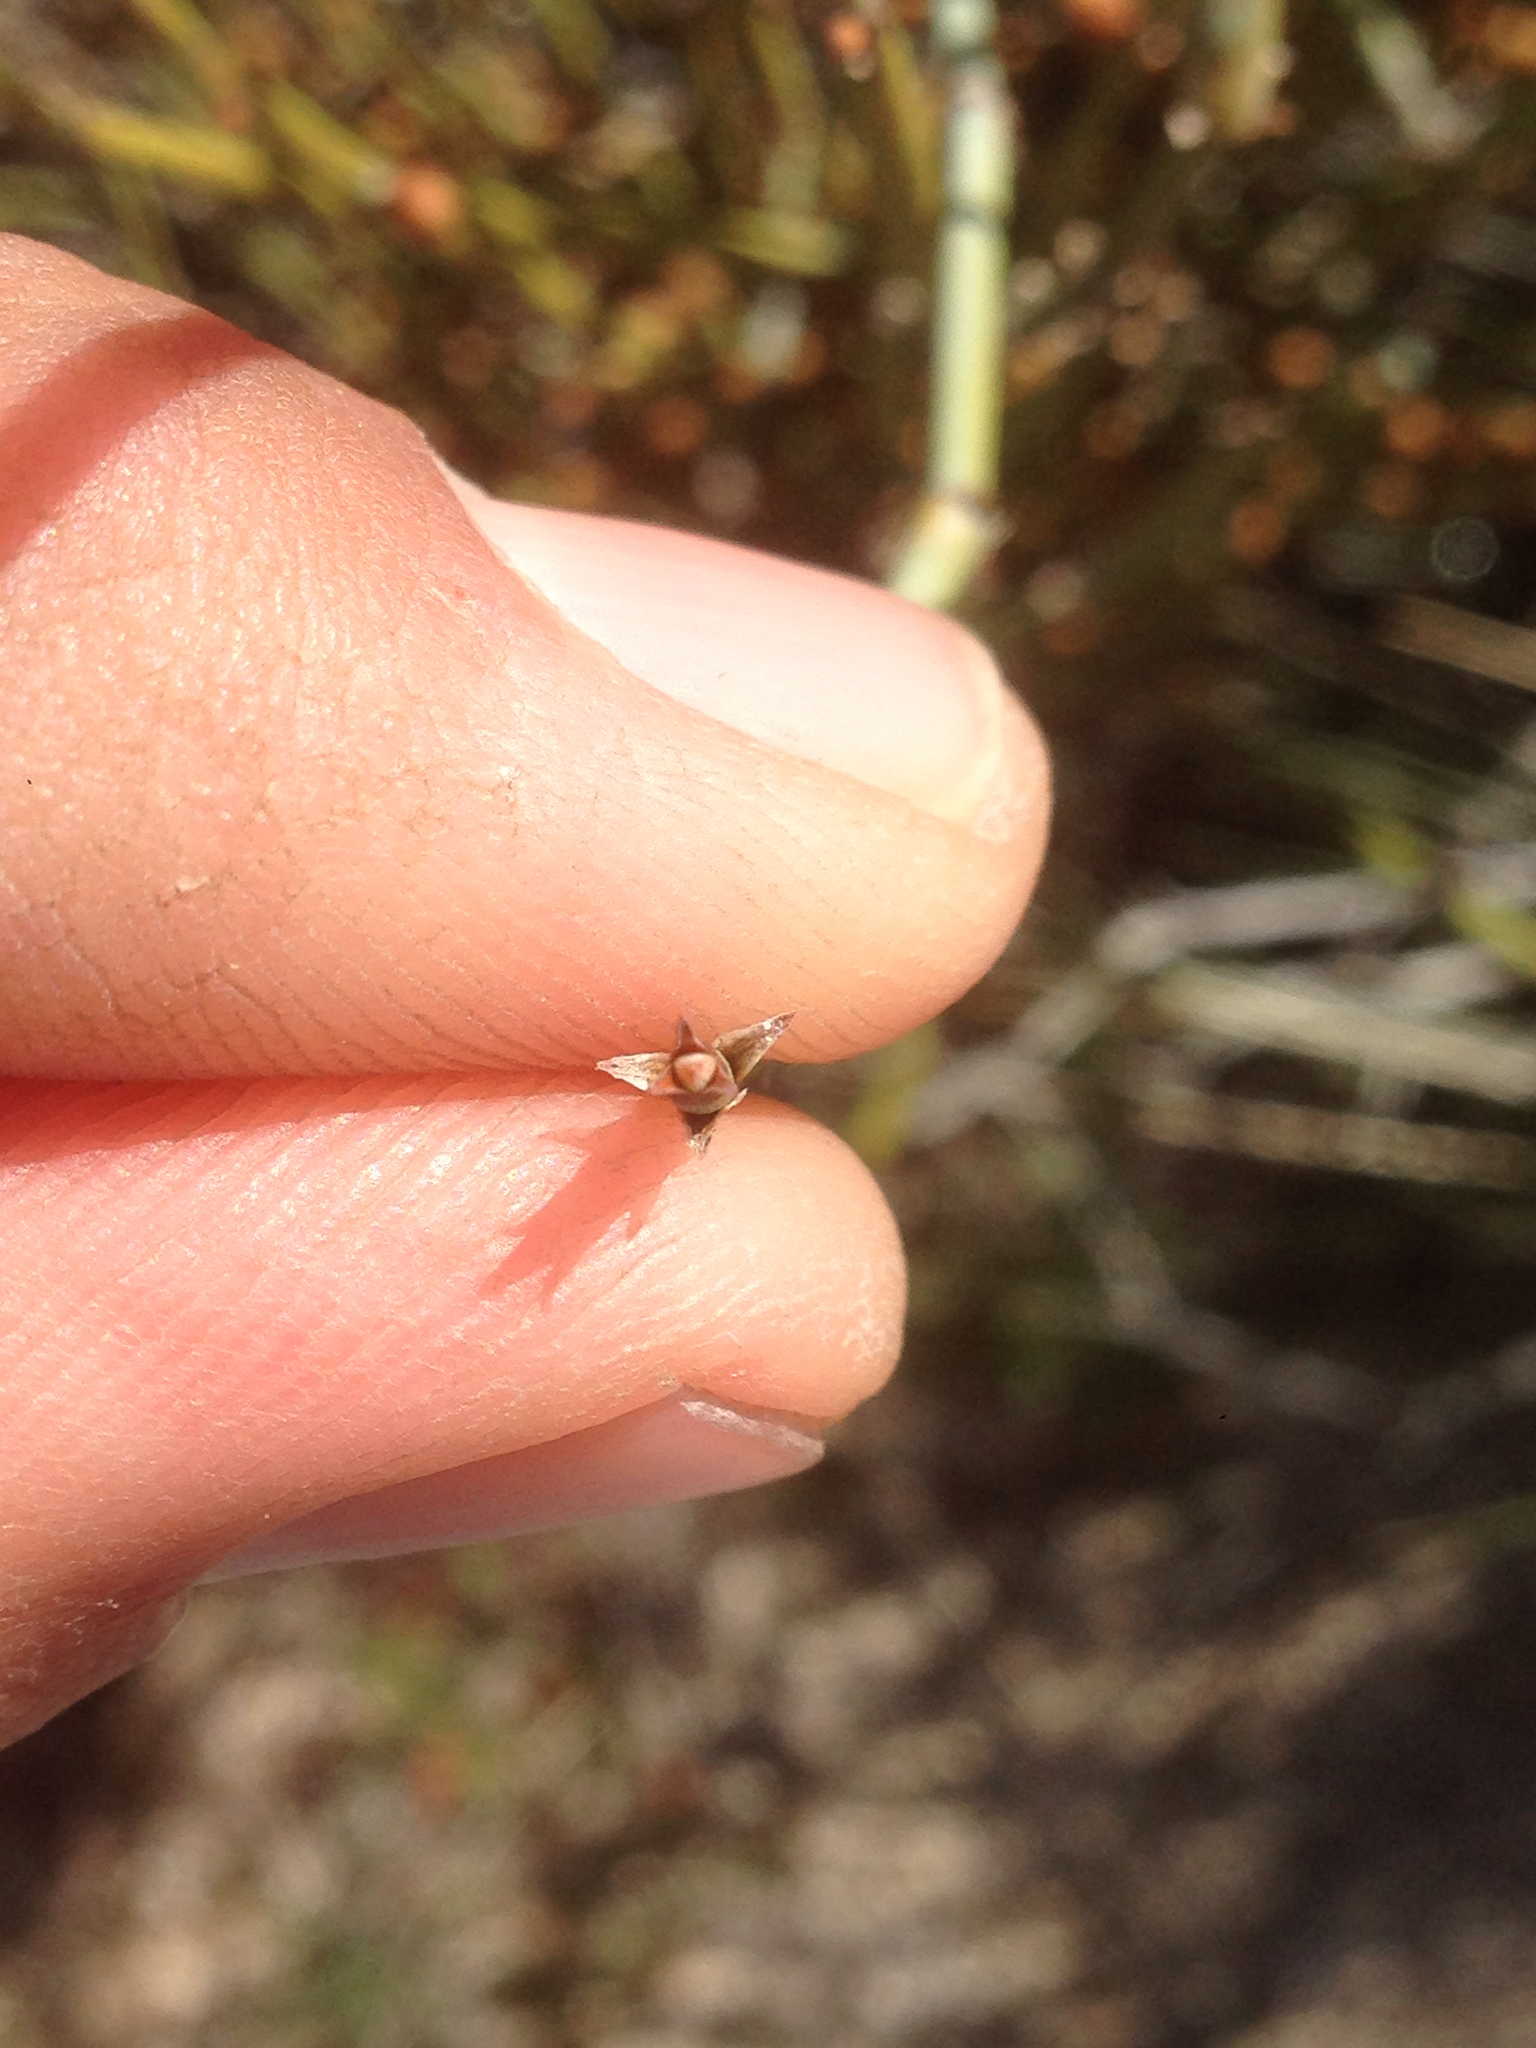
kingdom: Plantae
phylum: Tracheophyta
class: Gnetopsida
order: Ephedrales
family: Ephedraceae
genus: Ephedra
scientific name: Ephedra californica
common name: California ephedra
